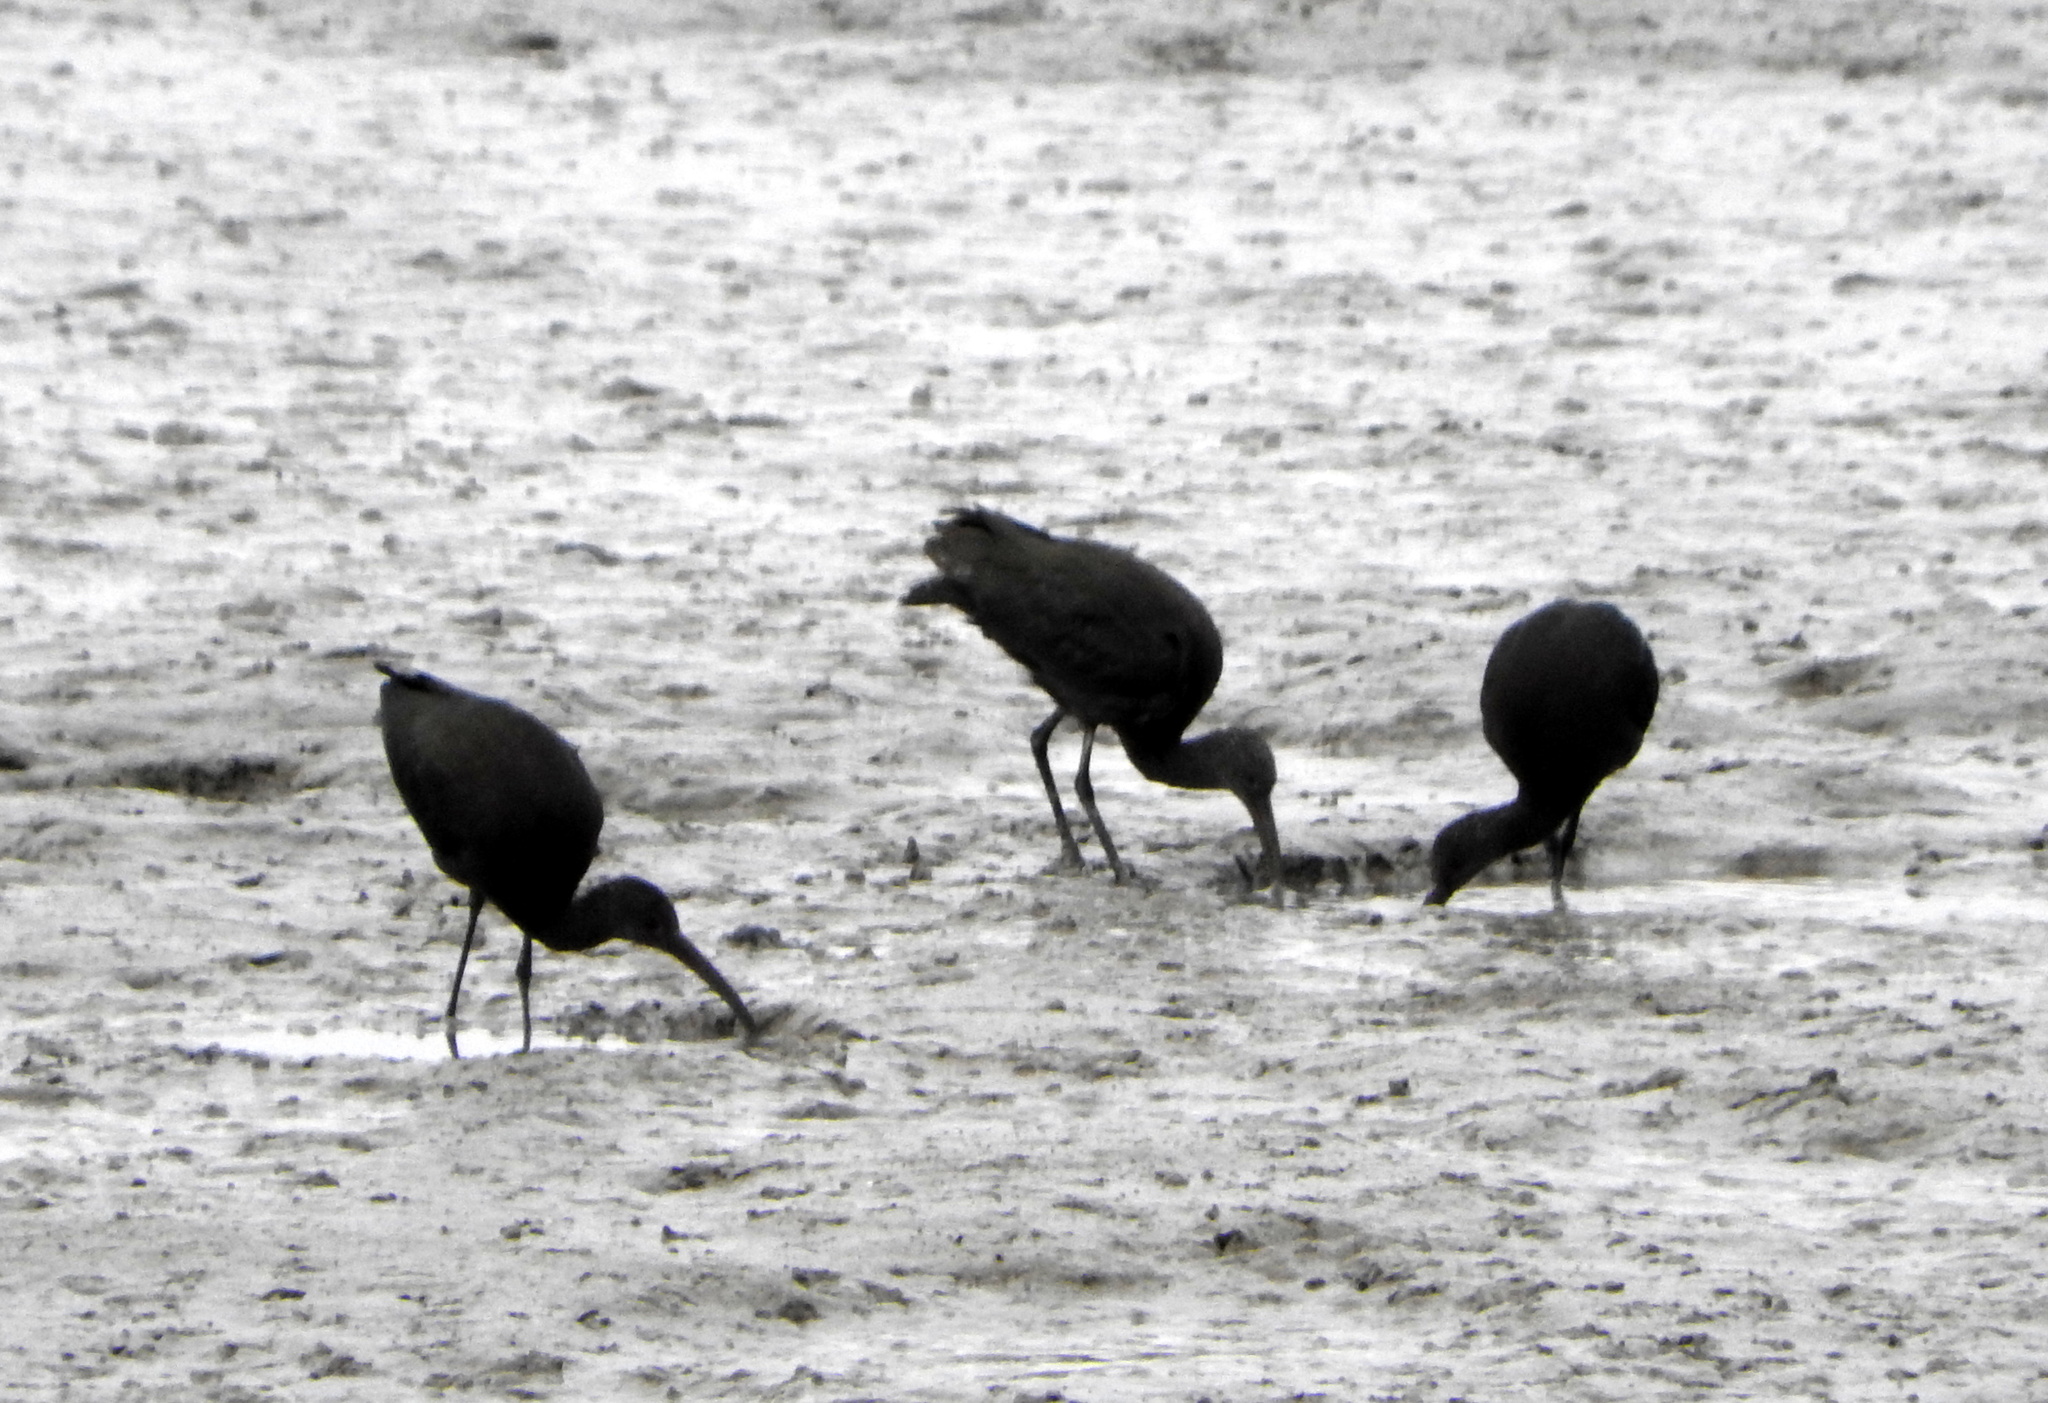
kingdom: Animalia
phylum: Chordata
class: Aves
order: Pelecaniformes
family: Threskiornithidae
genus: Plegadis
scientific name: Plegadis chihi
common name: White-faced ibis
